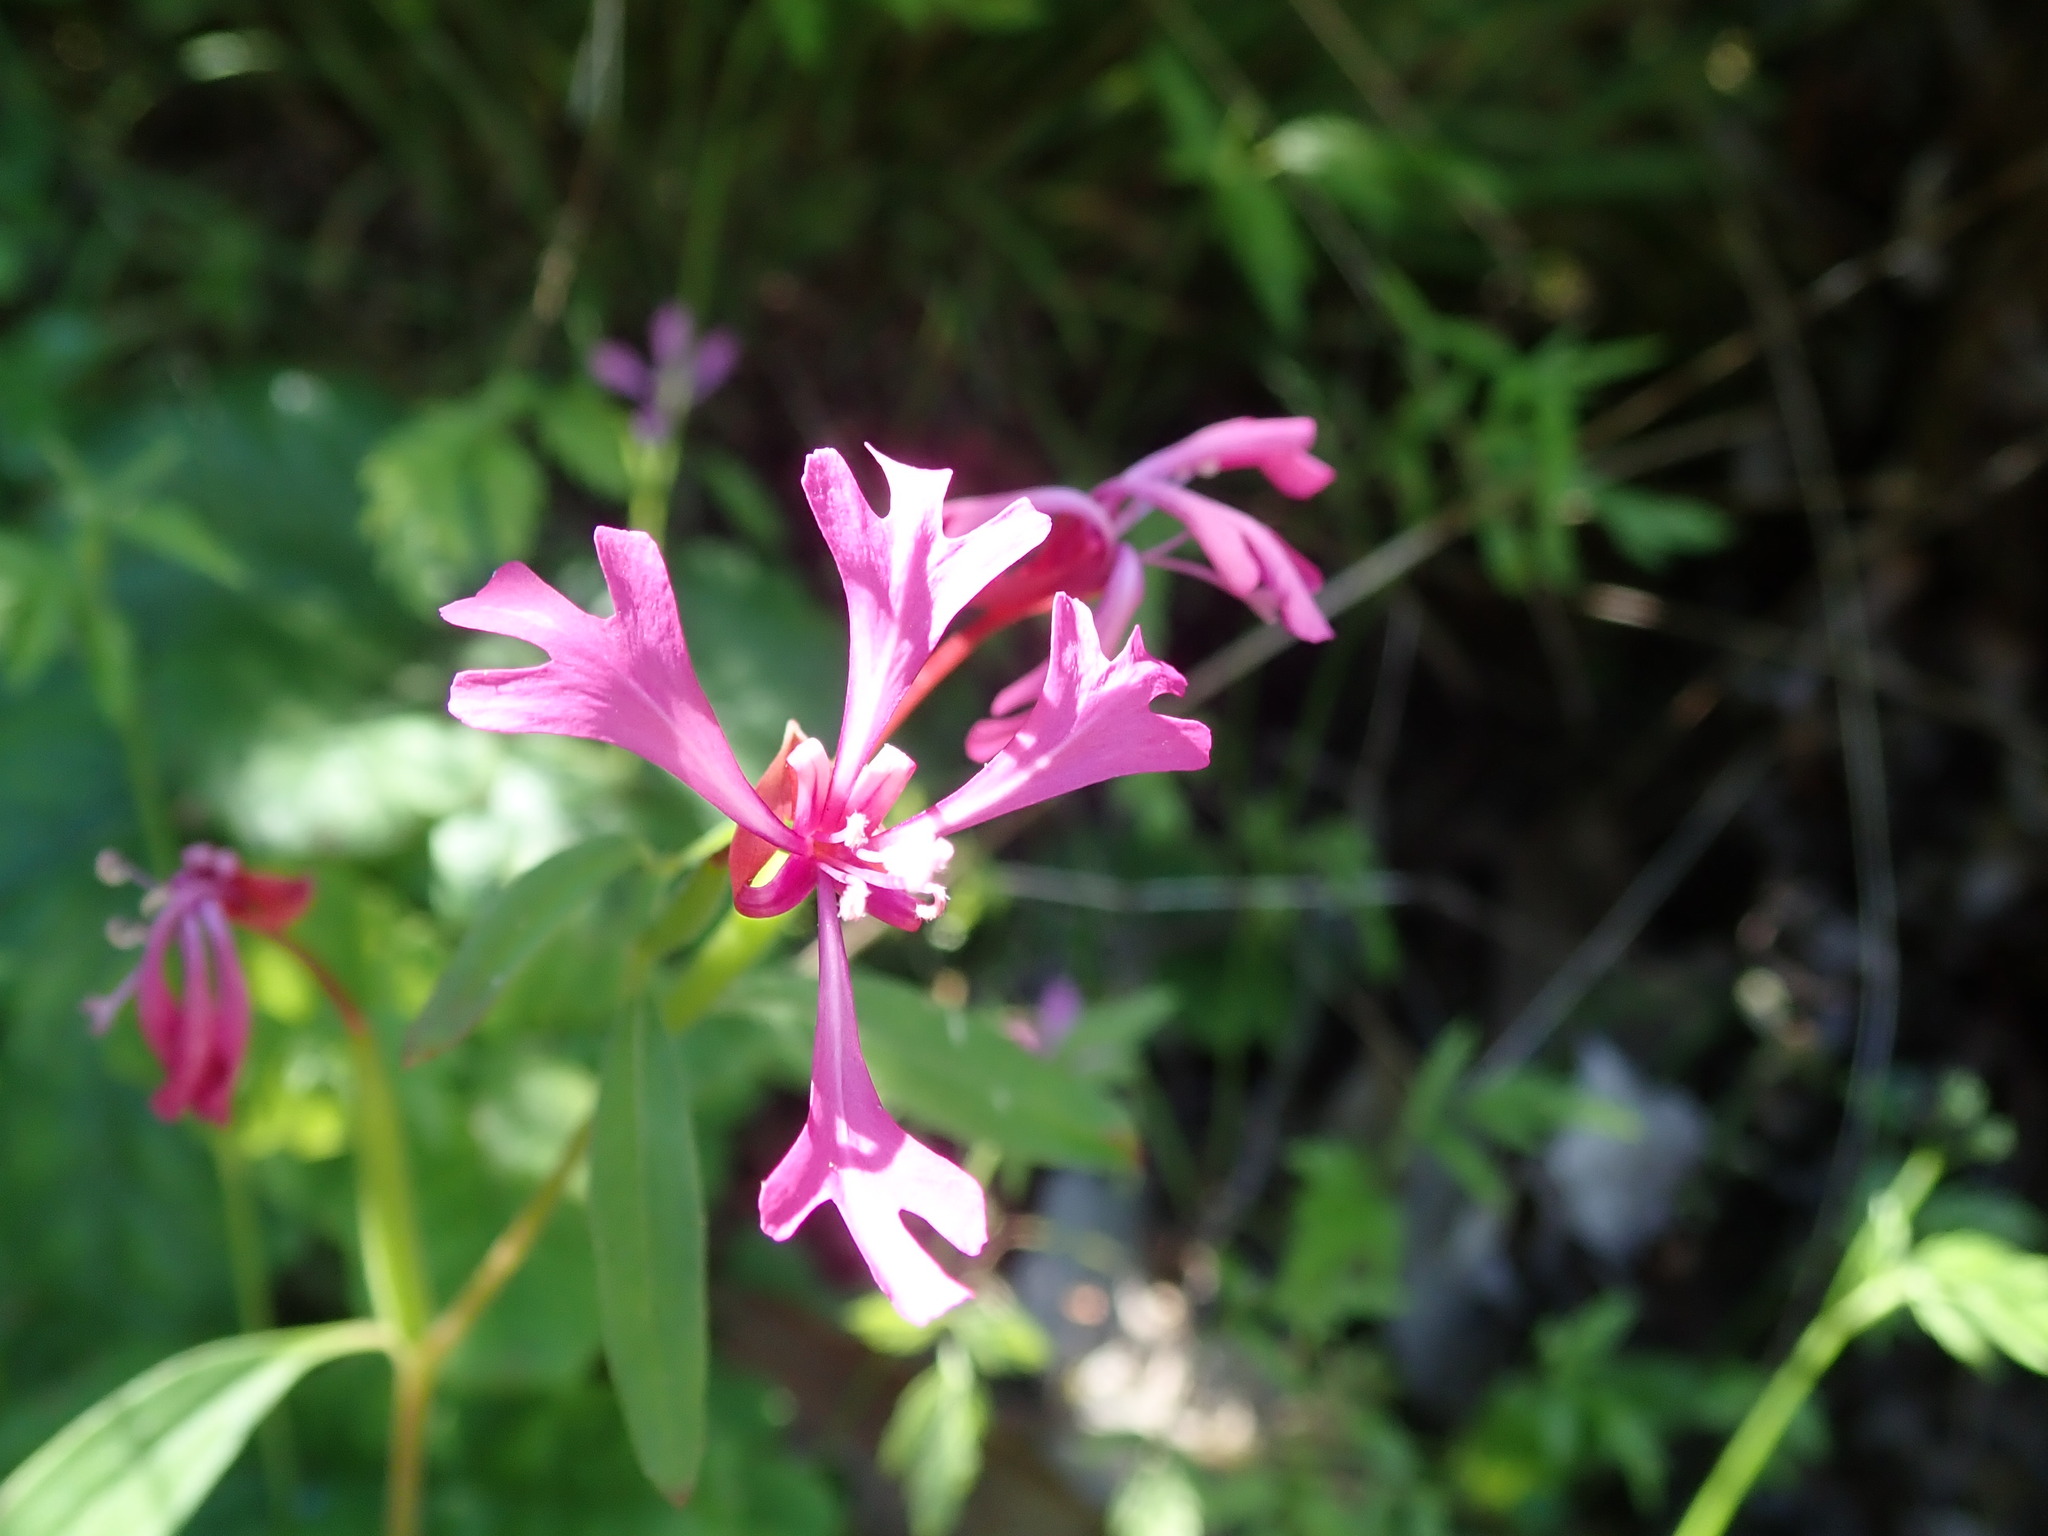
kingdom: Plantae
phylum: Tracheophyta
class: Magnoliopsida
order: Myrtales
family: Onagraceae
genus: Clarkia
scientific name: Clarkia concinna
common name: Red-ribbons
